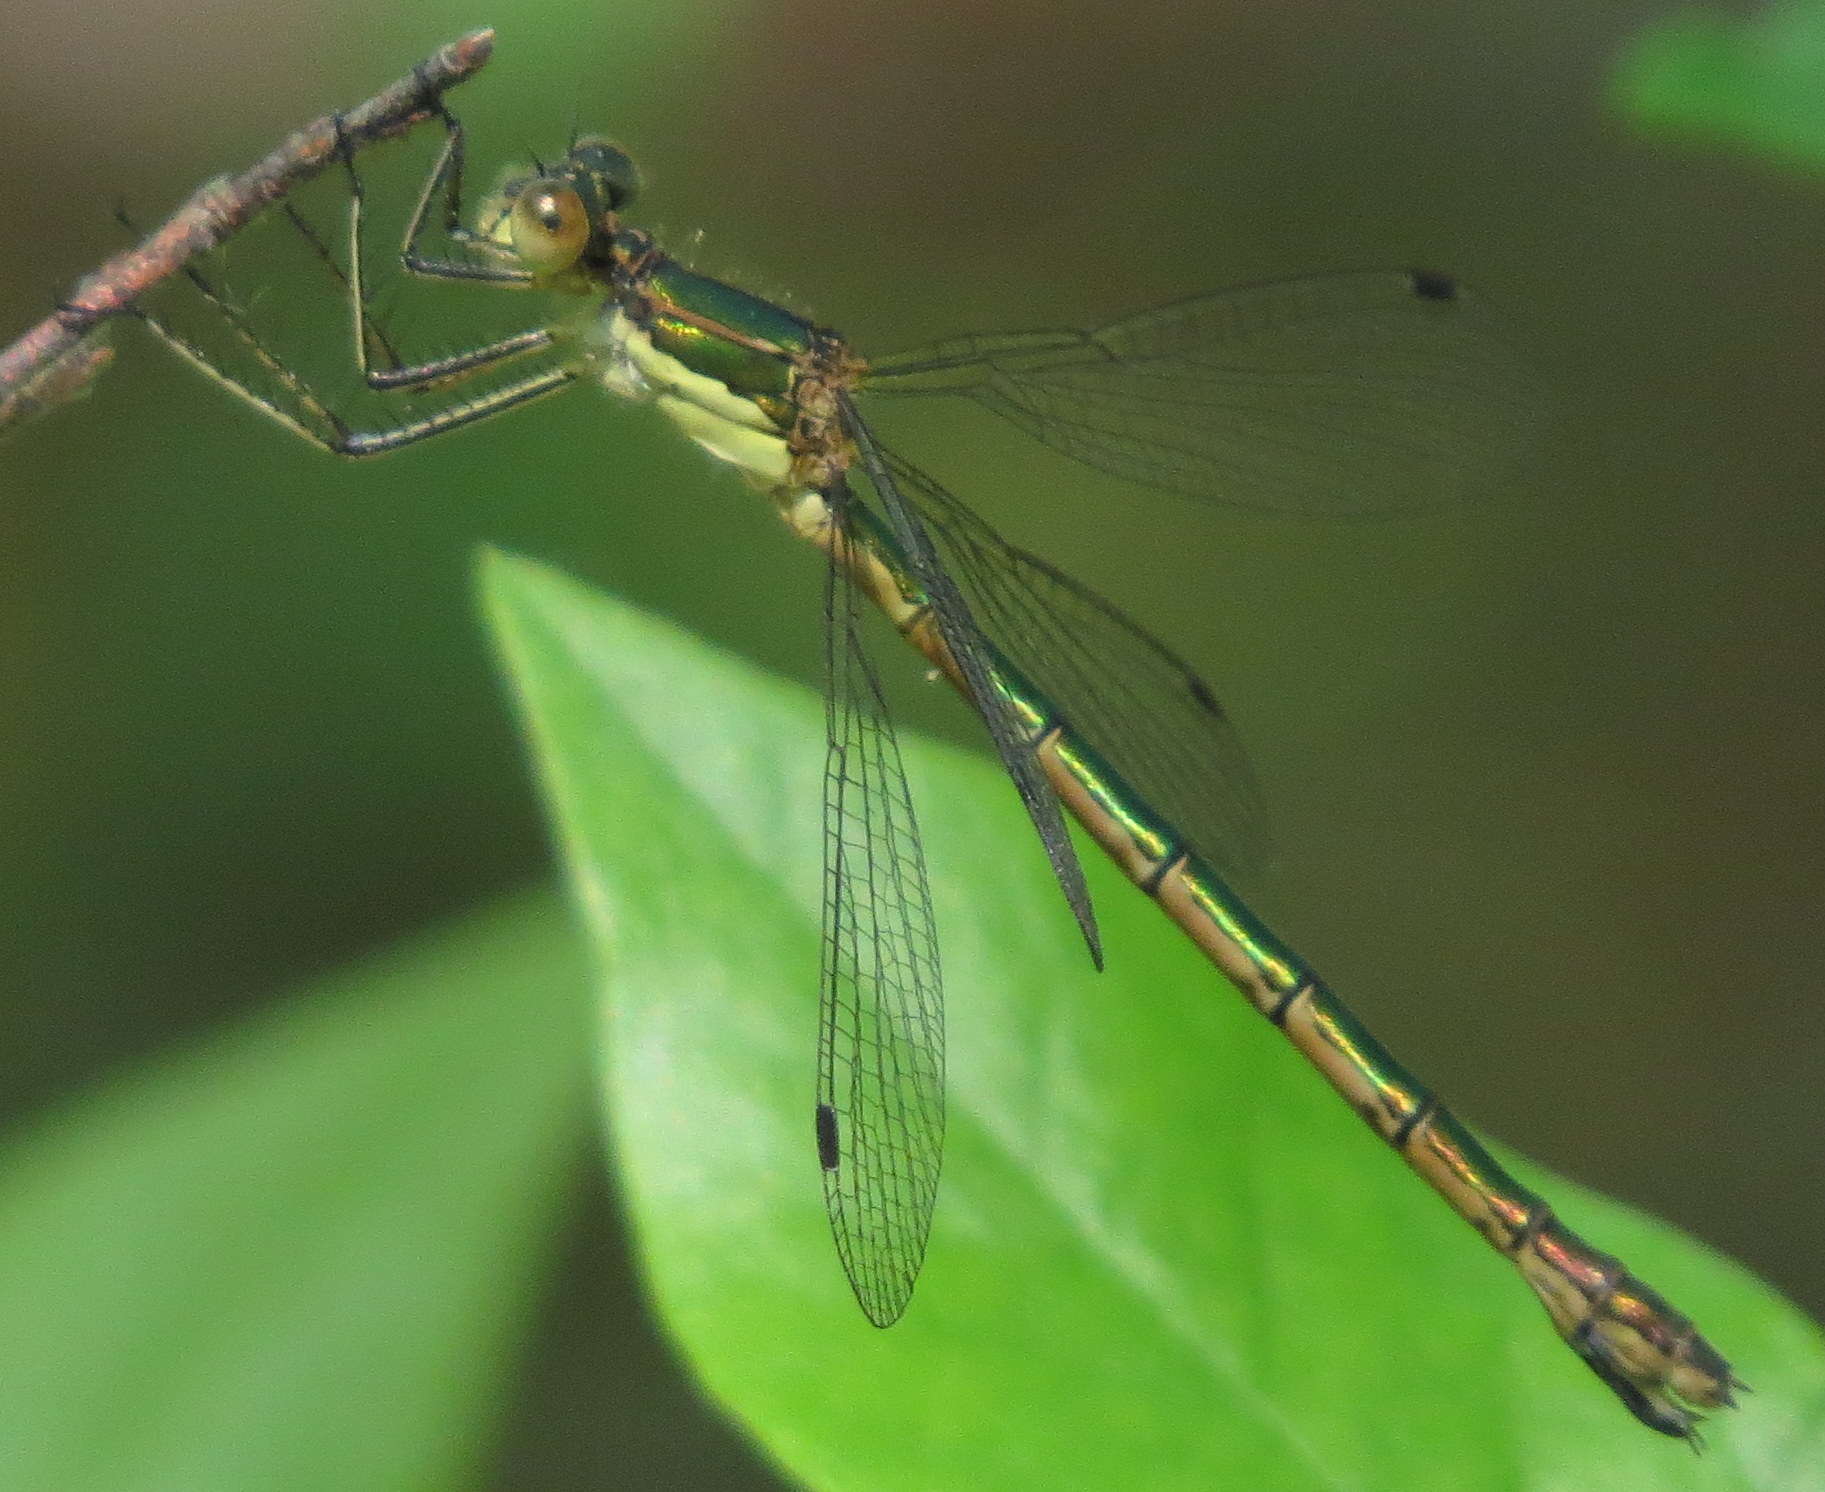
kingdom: Animalia
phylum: Arthropoda
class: Insecta
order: Odonata
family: Lestidae
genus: Lestes
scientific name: Lestes dryas
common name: Scarce emerald damselfly
